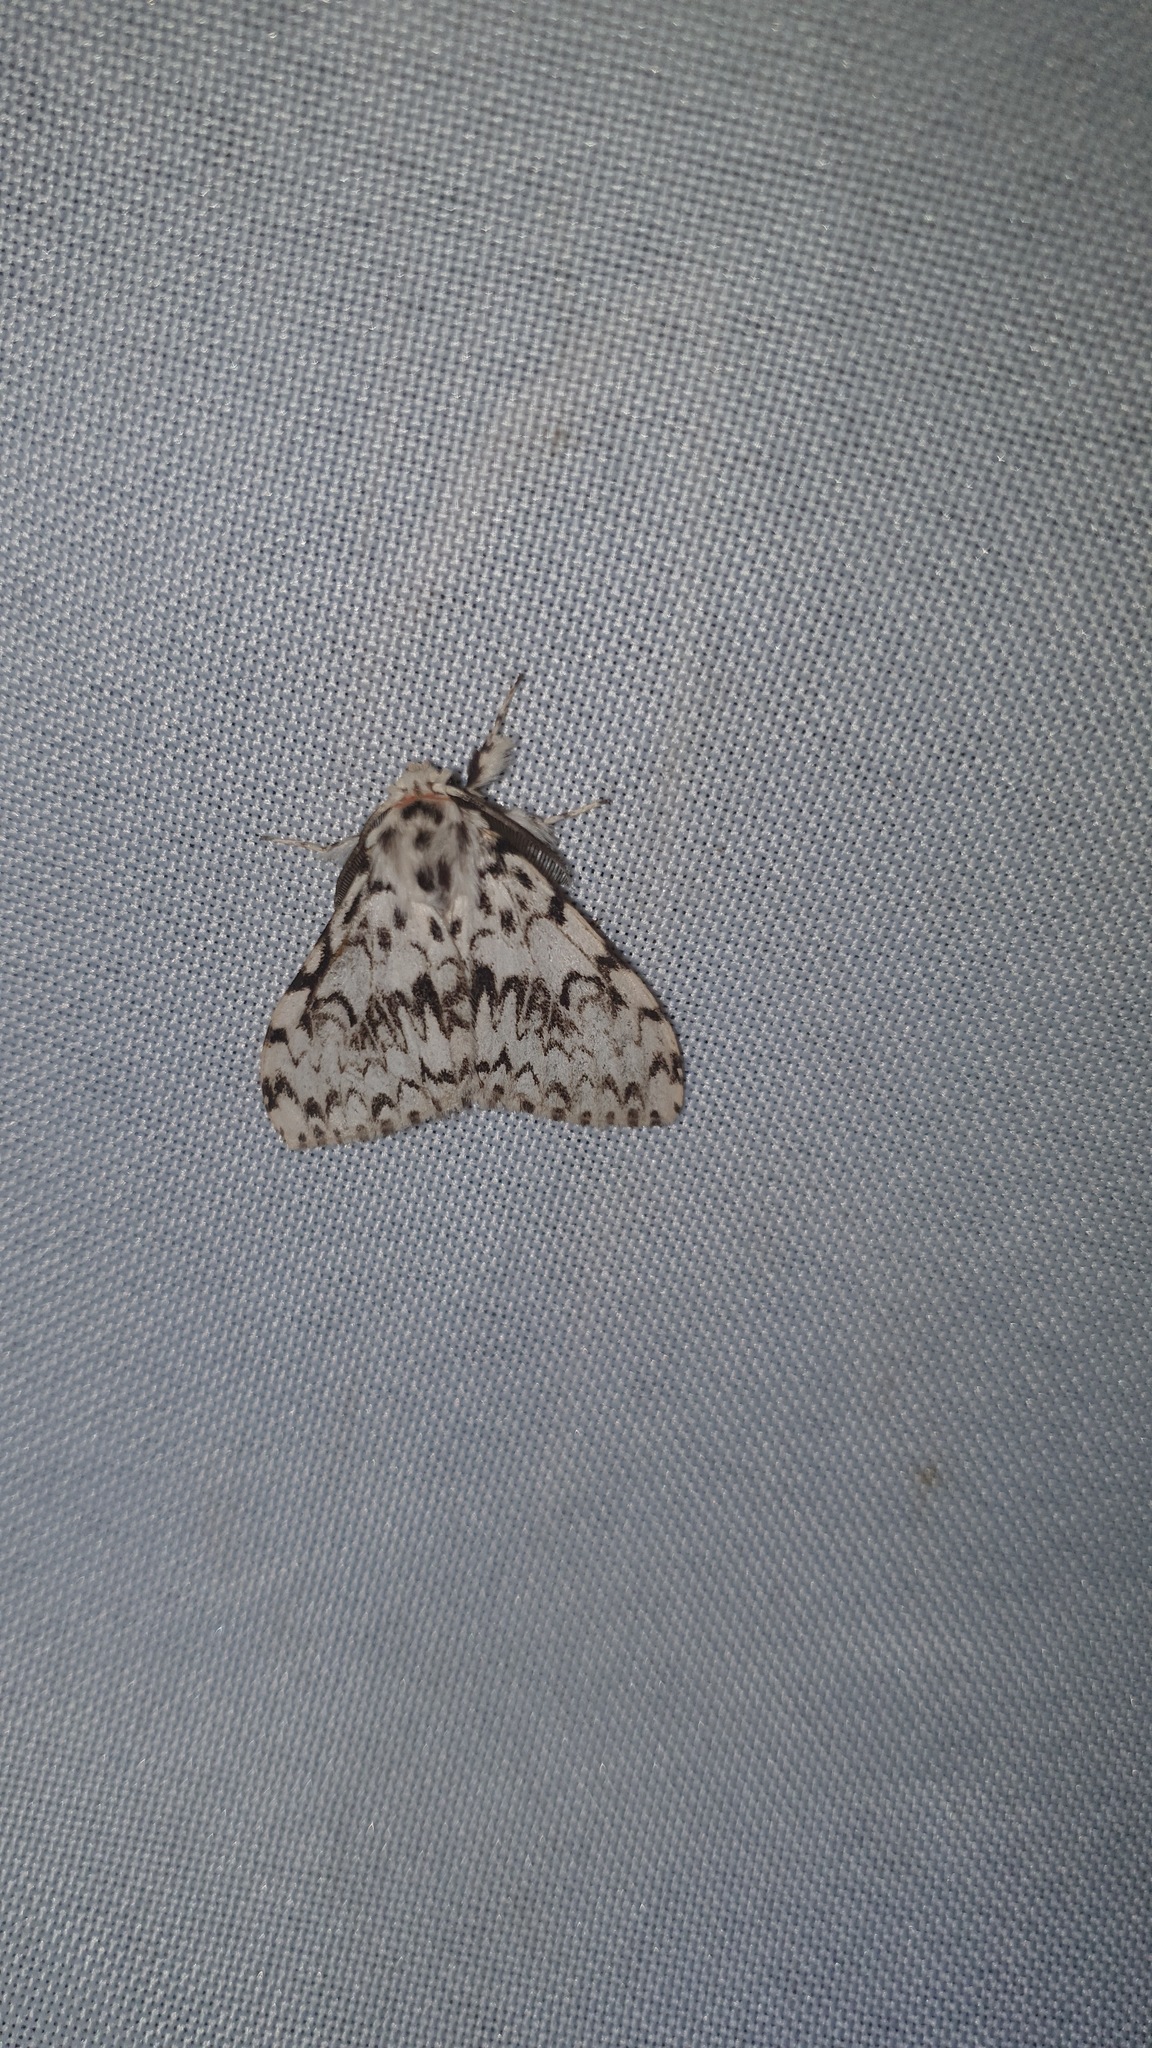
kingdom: Animalia
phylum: Arthropoda
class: Insecta
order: Lepidoptera
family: Erebidae
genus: Lymantria
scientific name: Lymantria monacha
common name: Black arches
